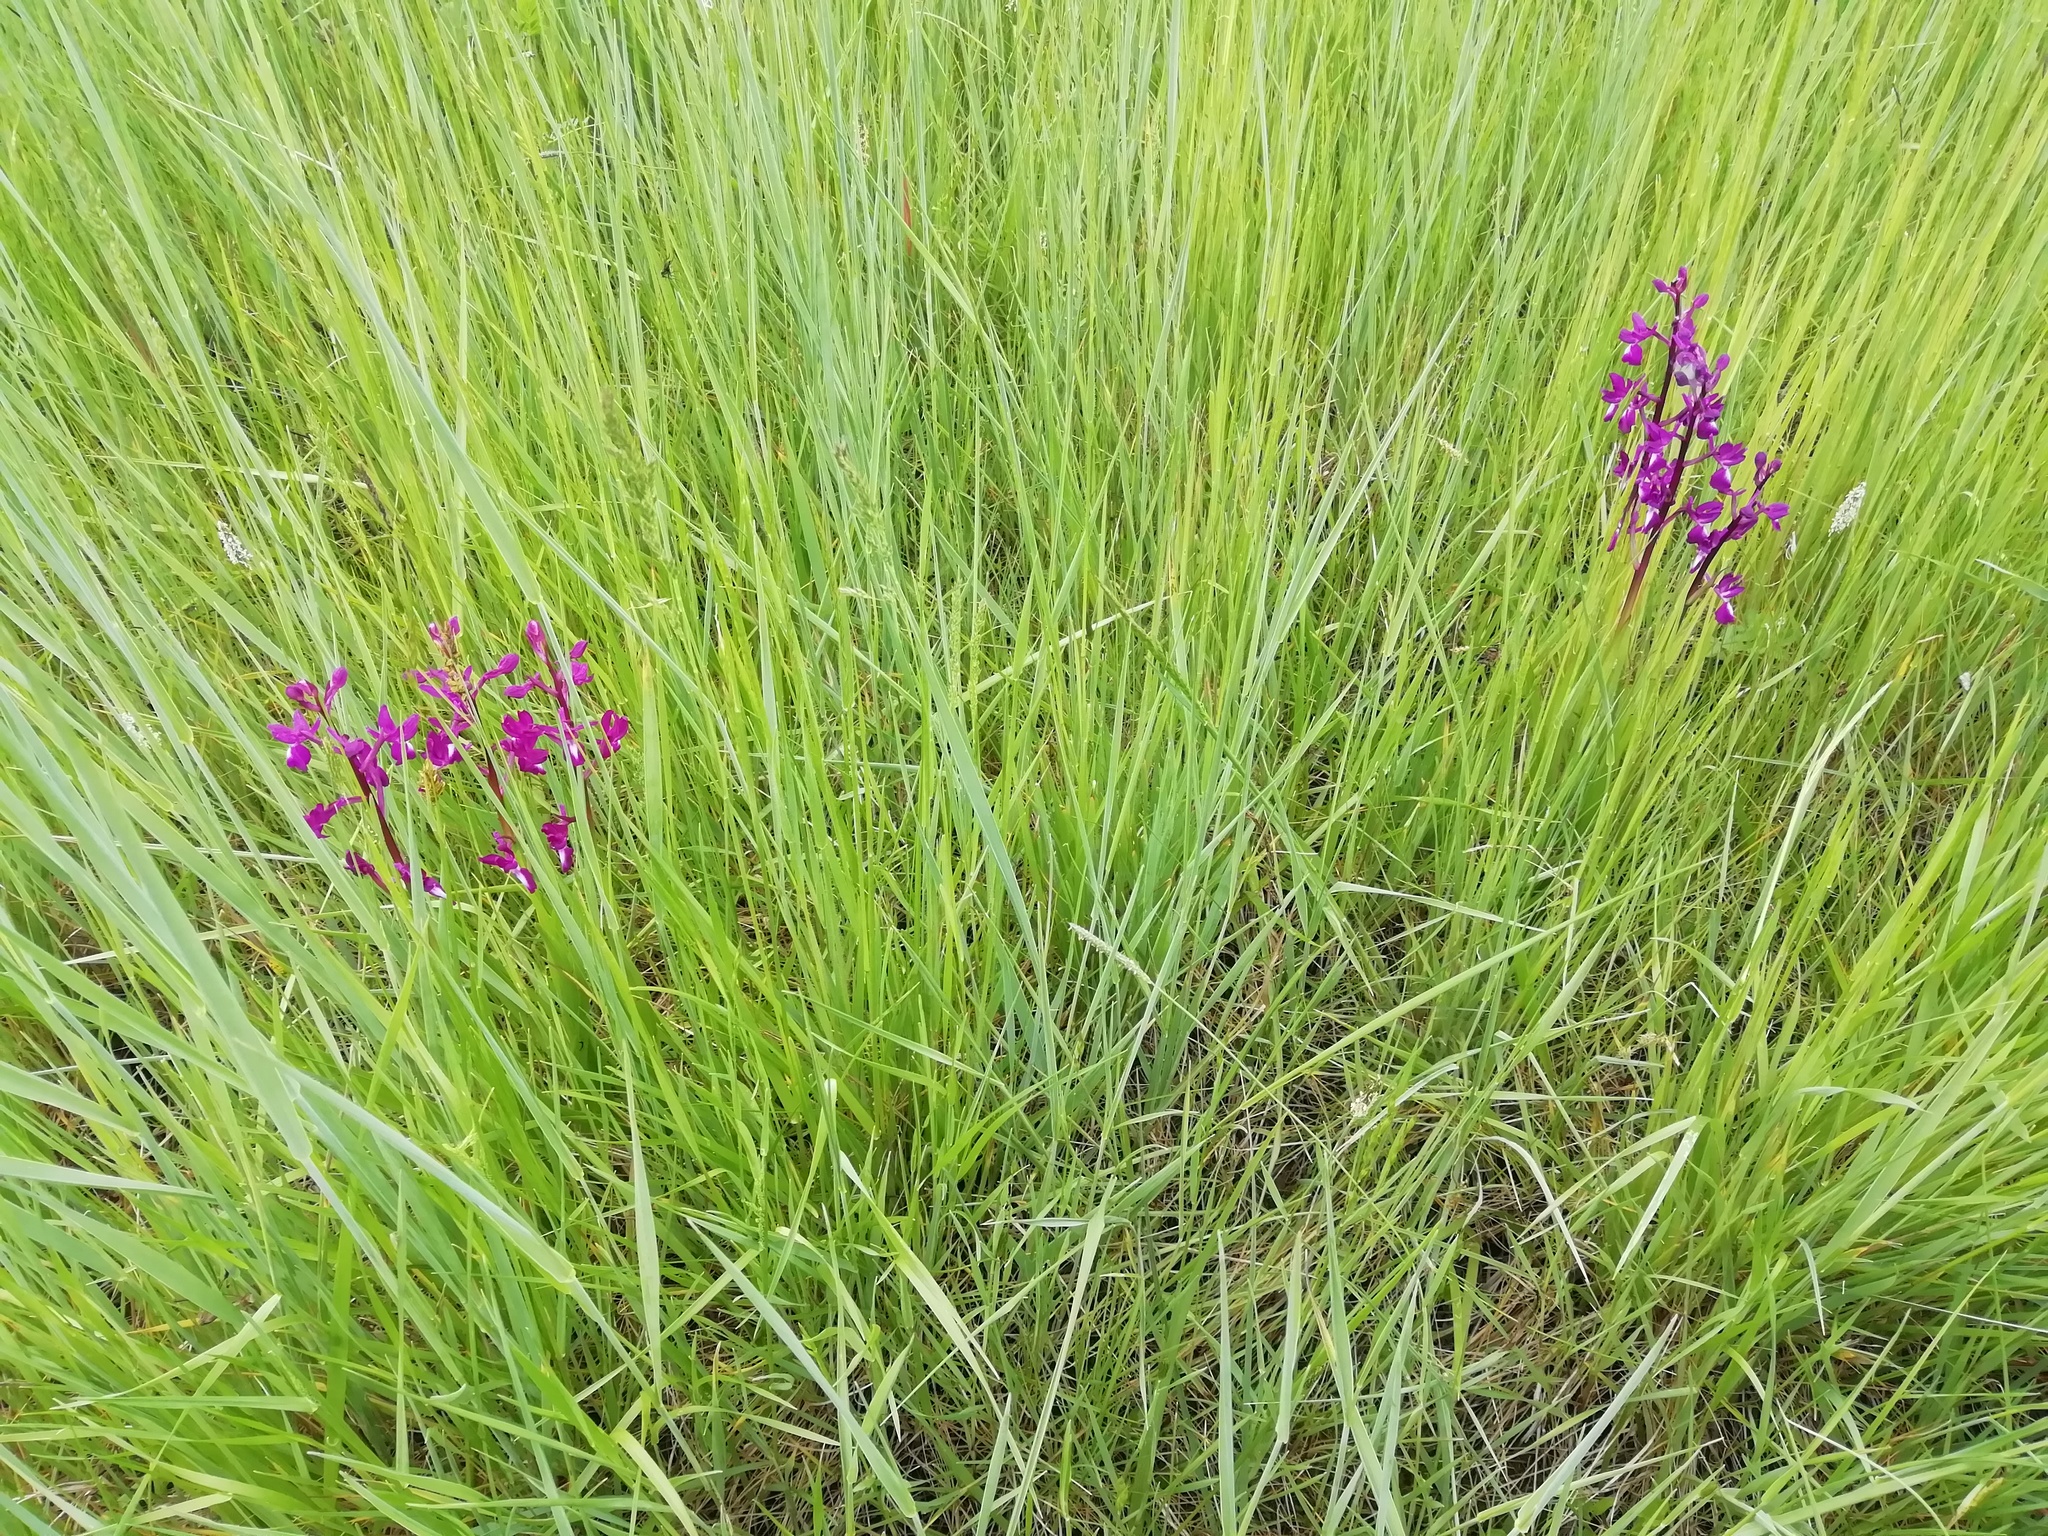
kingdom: Plantae
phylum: Tracheophyta
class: Liliopsida
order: Asparagales
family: Orchidaceae
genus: Anacamptis
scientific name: Anacamptis laxiflora
